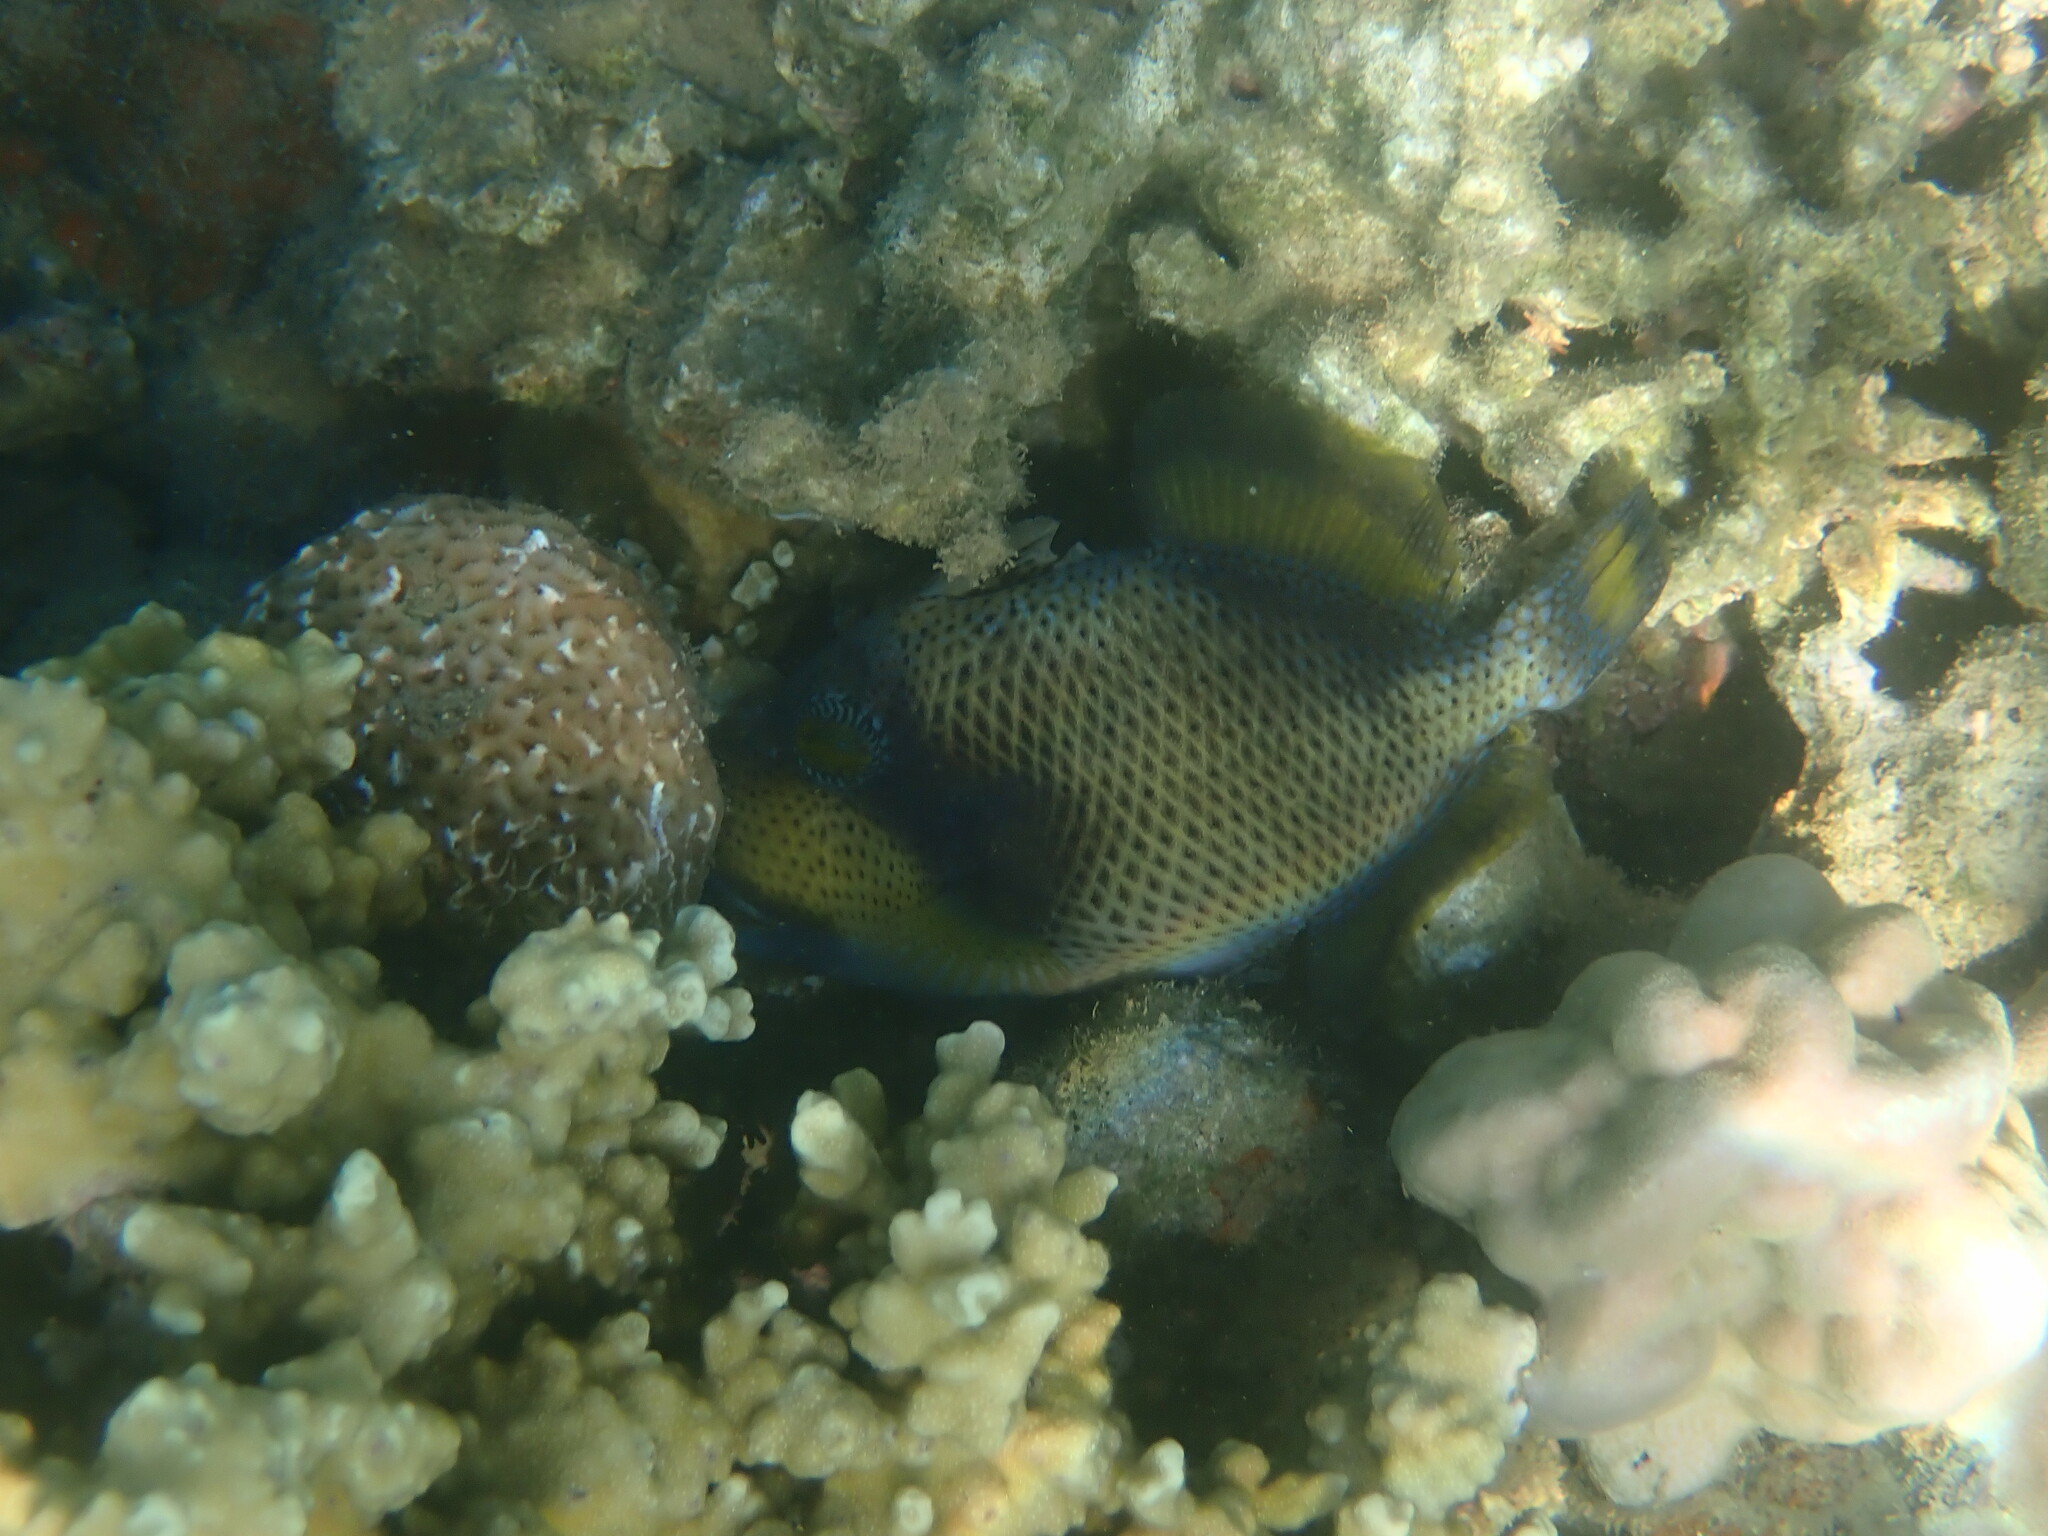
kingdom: Animalia
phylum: Chordata
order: Tetraodontiformes
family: Balistidae
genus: Balistoides
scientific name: Balistoides viridescens
